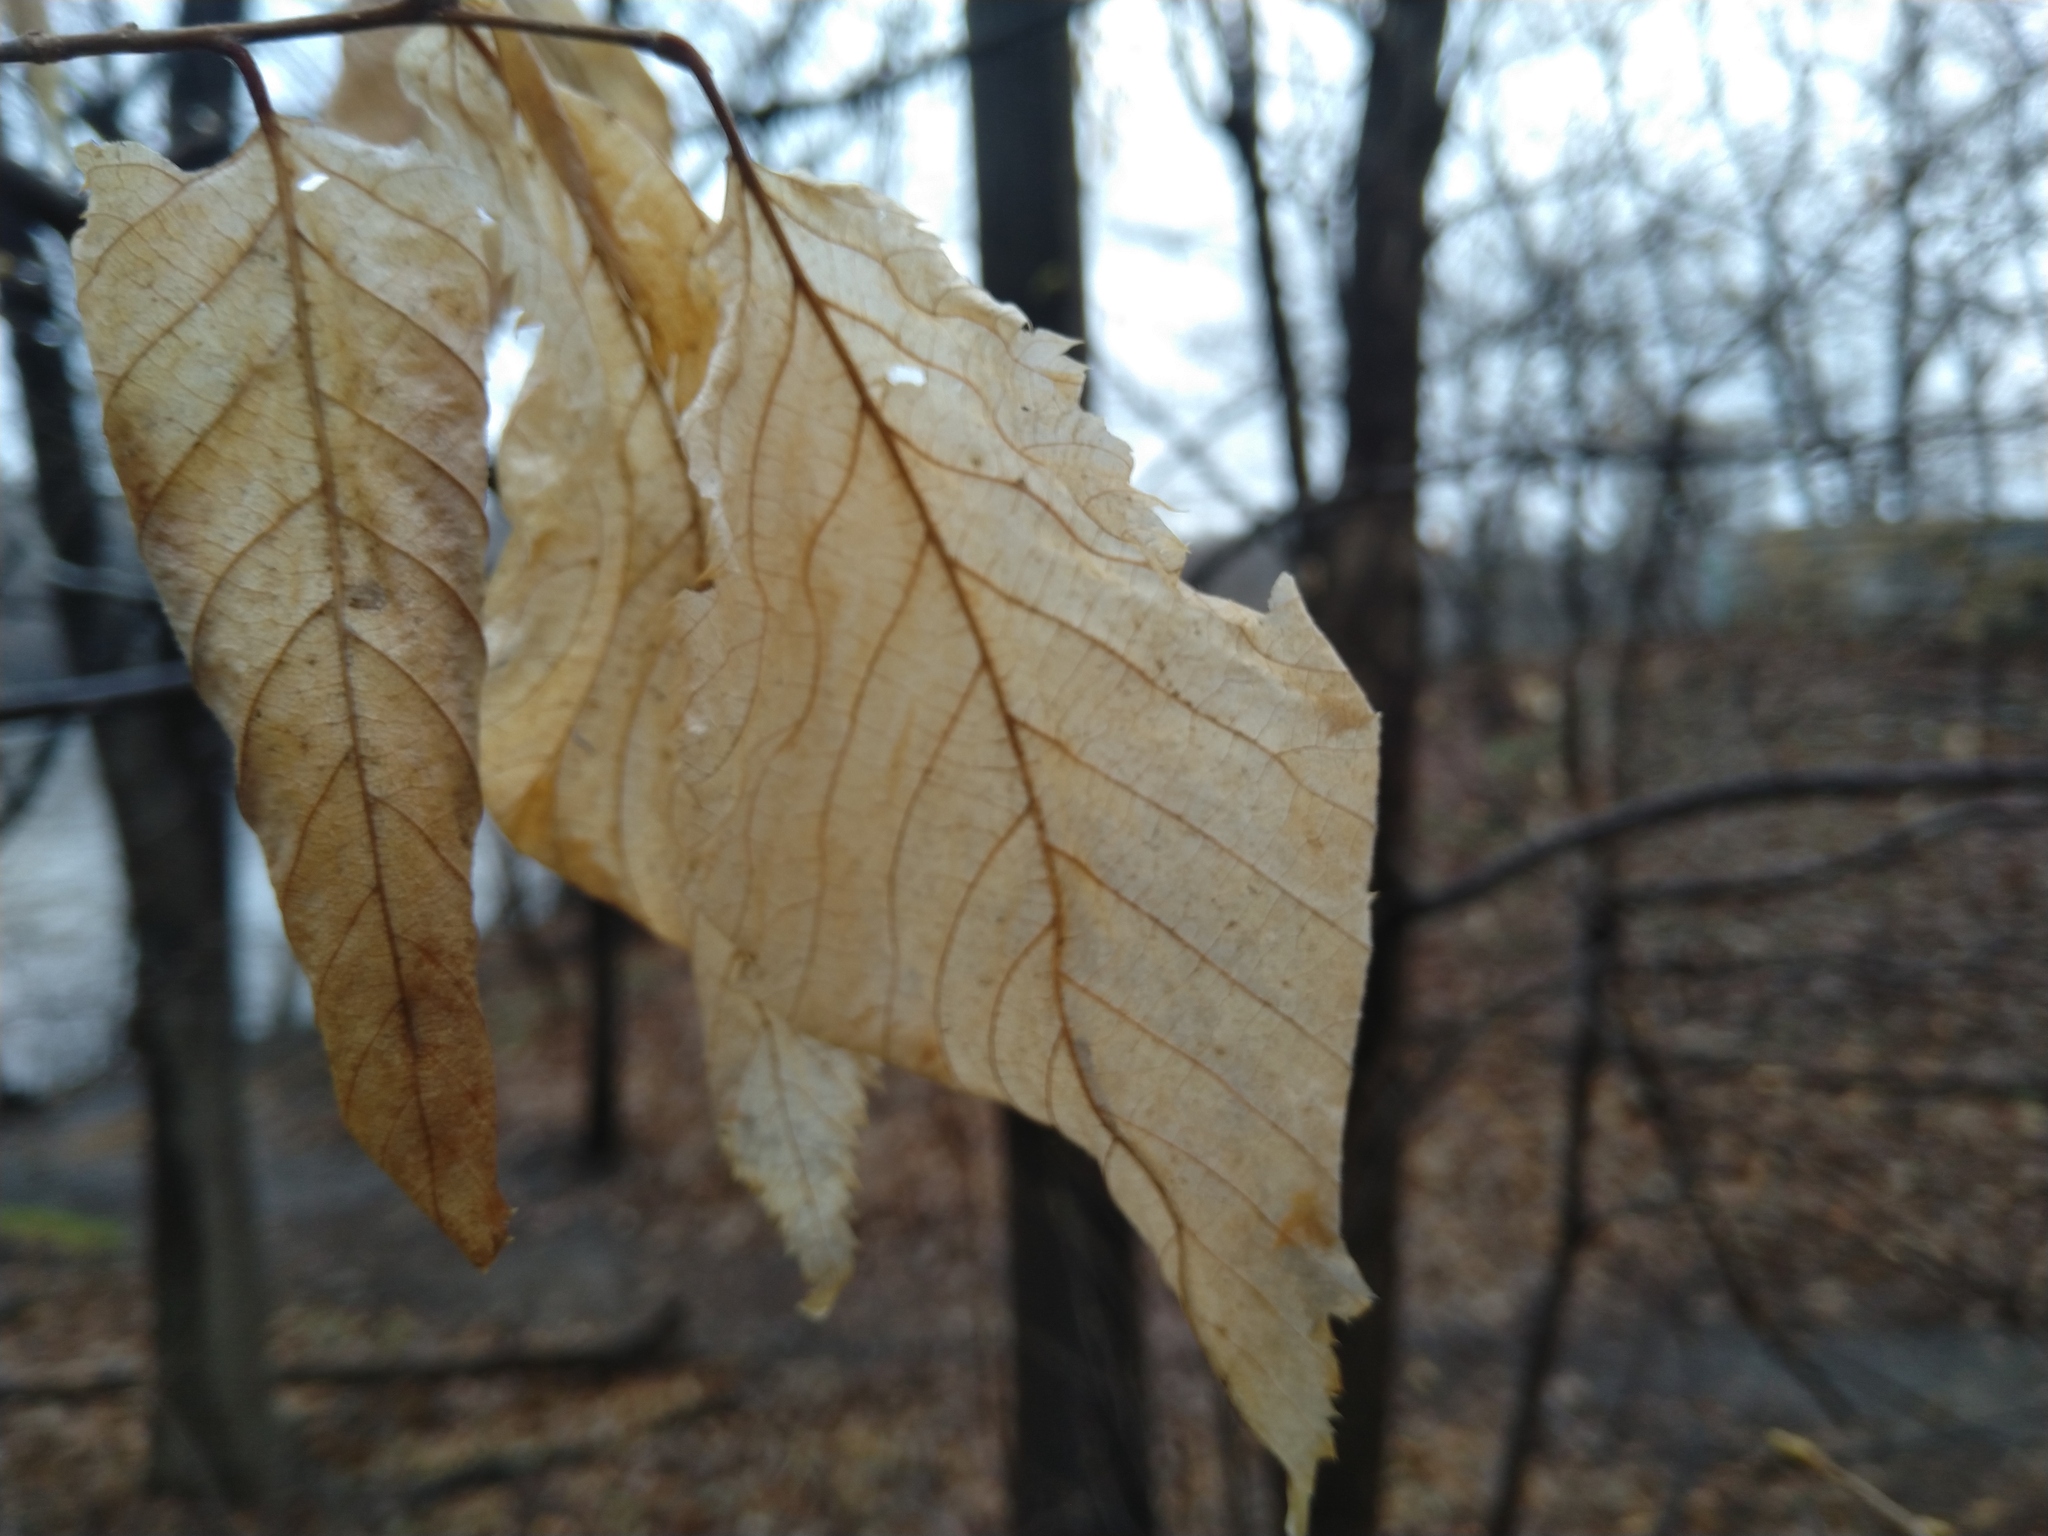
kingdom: Plantae
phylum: Tracheophyta
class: Magnoliopsida
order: Fagales
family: Betulaceae
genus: Ostrya
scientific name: Ostrya virginiana
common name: Ironwood
